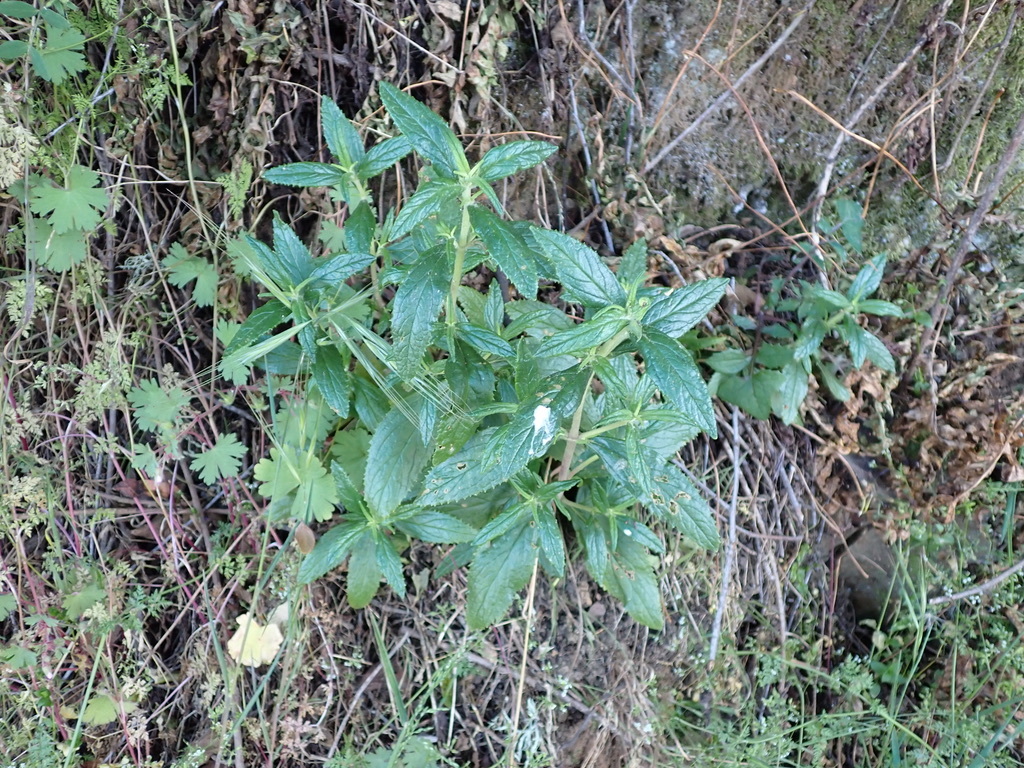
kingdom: Plantae
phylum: Tracheophyta
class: Magnoliopsida
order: Lamiales
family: Phrymaceae
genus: Diplacus
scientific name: Diplacus aurantiacus
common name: Bush monkey-flower
